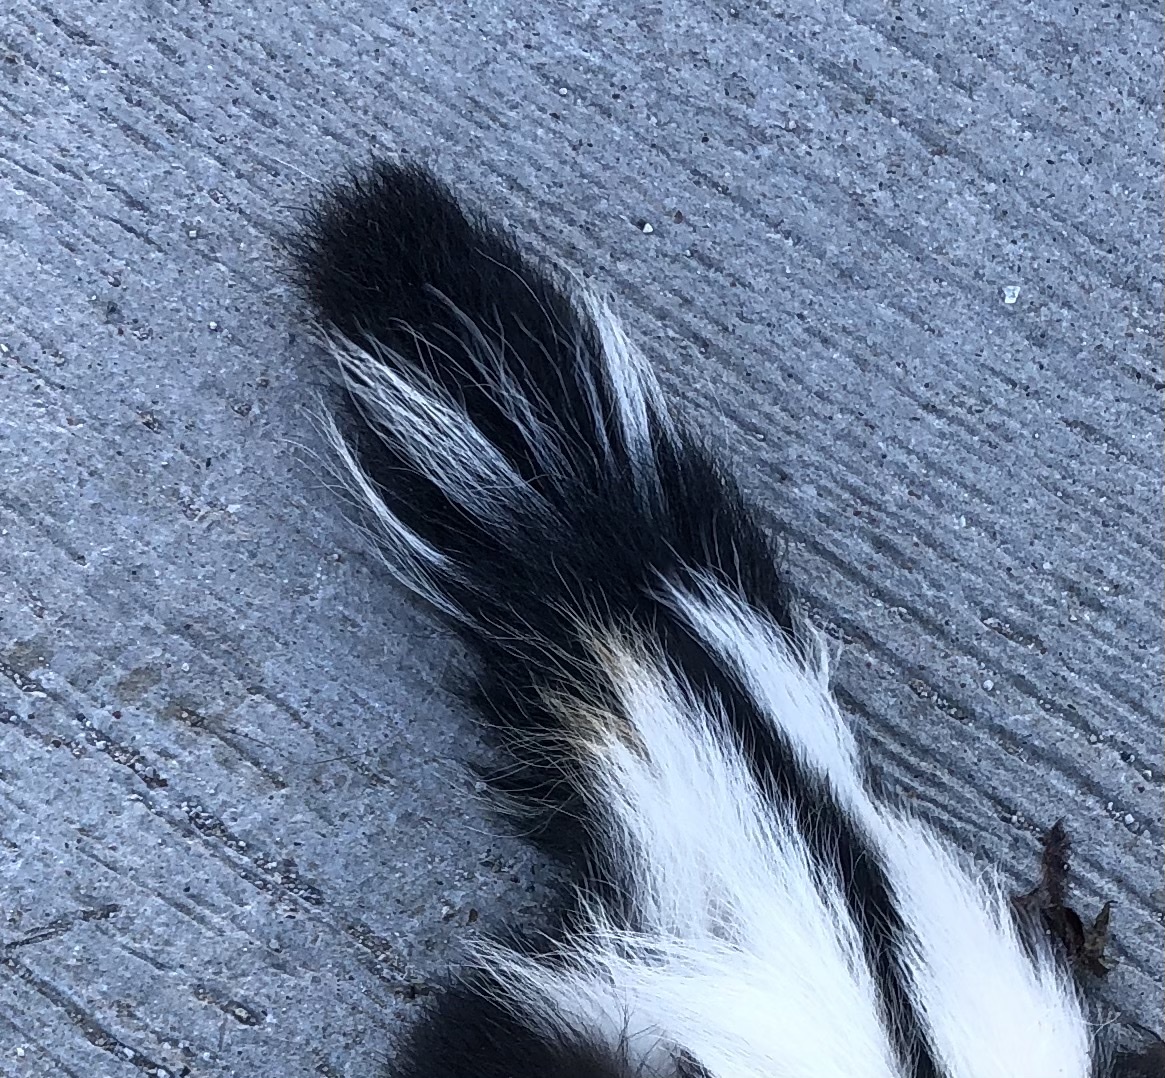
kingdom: Animalia
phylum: Chordata
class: Mammalia
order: Carnivora
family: Mephitidae
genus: Mephitis
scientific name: Mephitis mephitis
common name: Striped skunk
